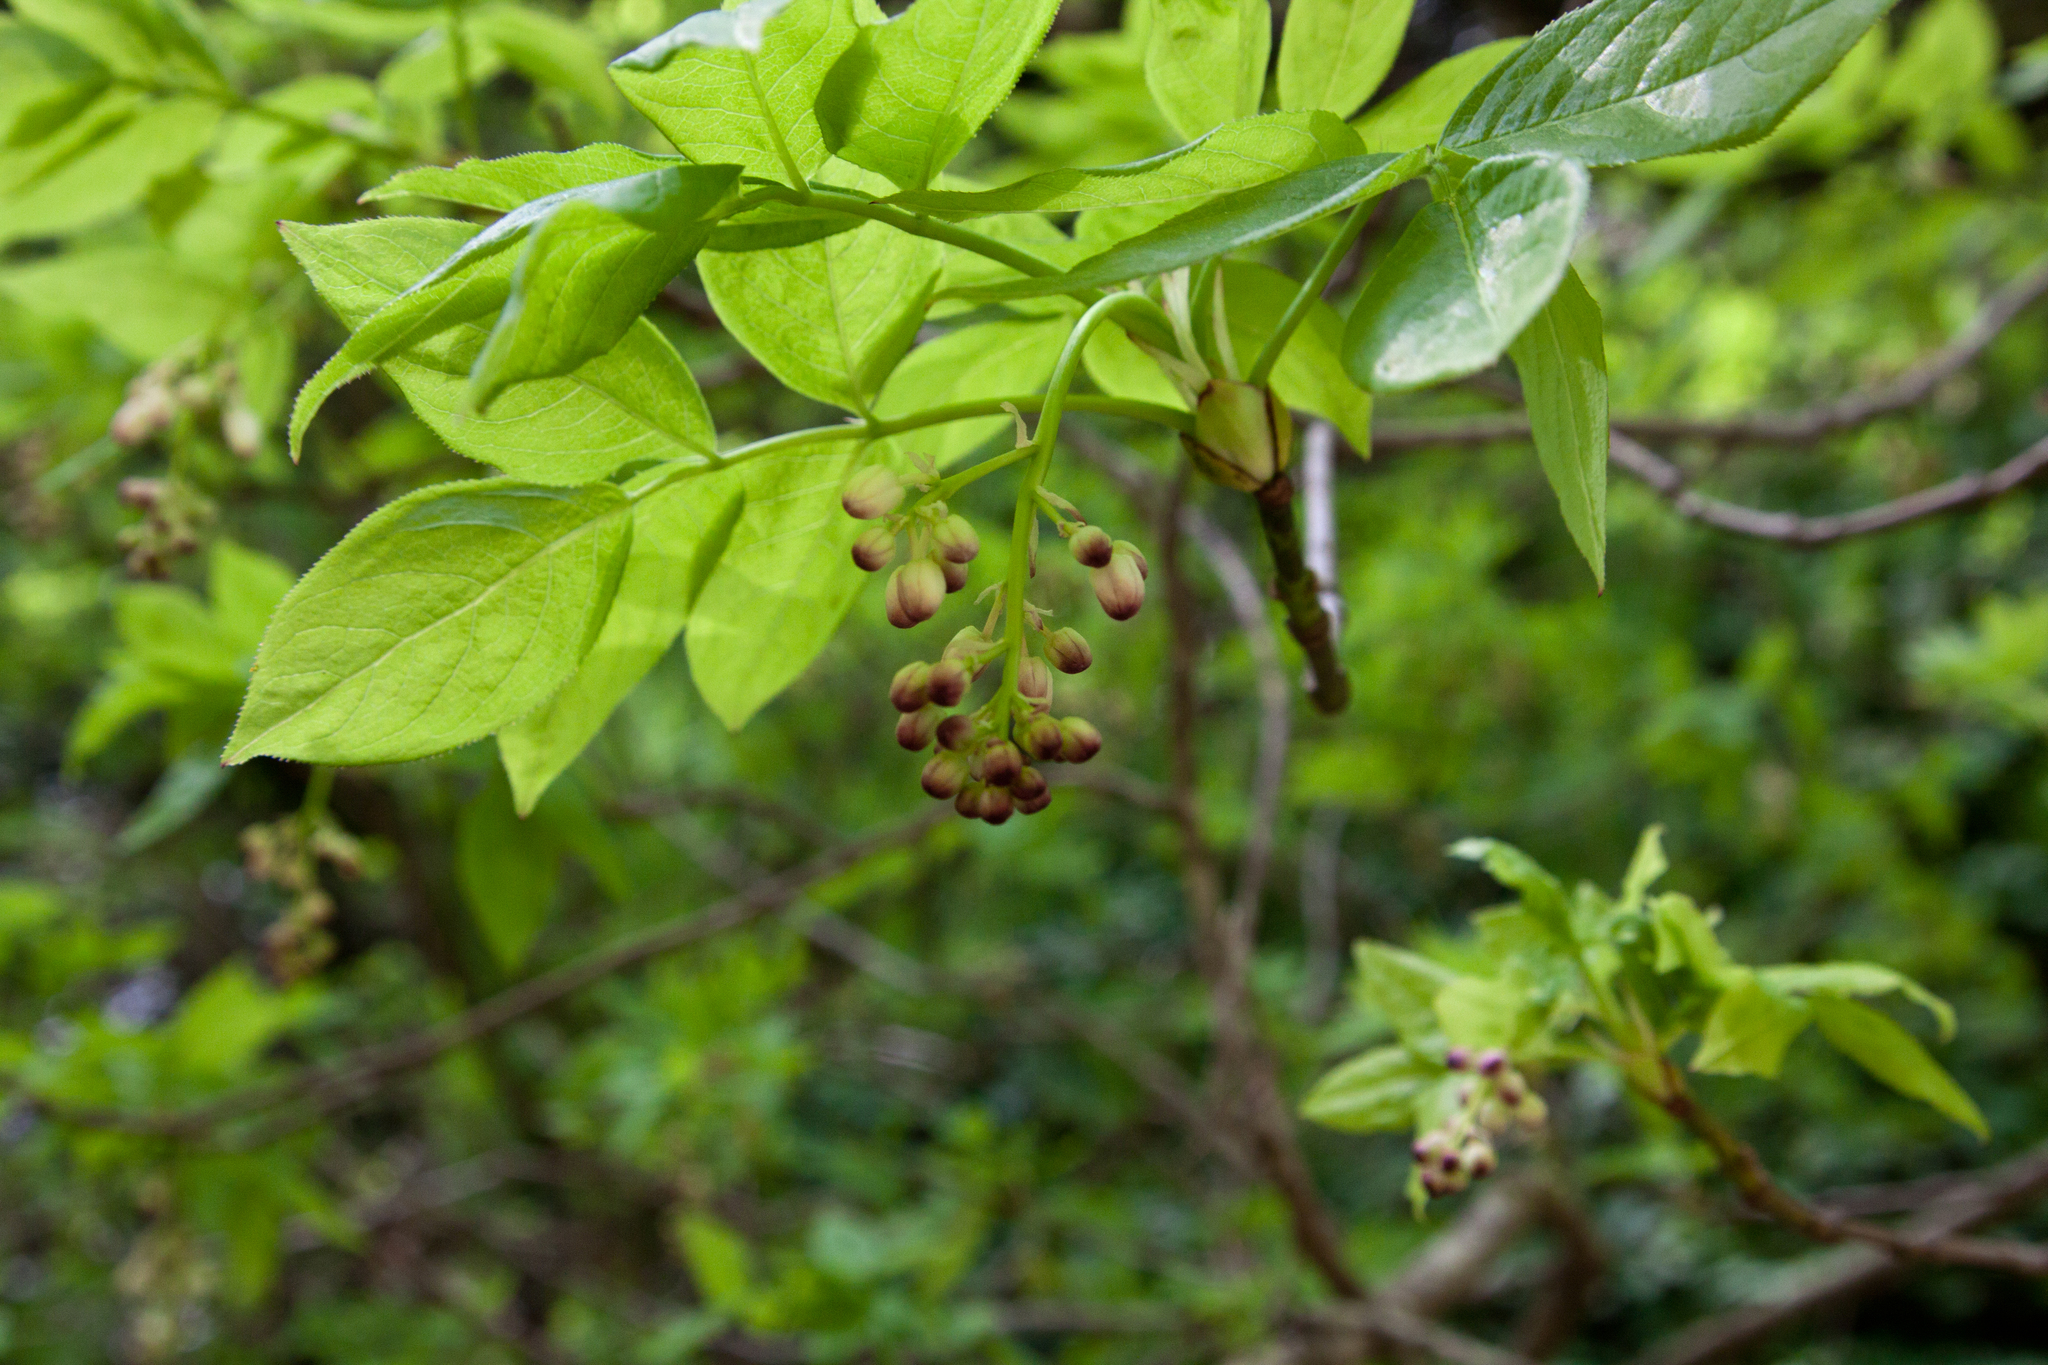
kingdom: Plantae
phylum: Tracheophyta
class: Magnoliopsida
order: Crossosomatales
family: Staphyleaceae
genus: Staphylea
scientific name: Staphylea pinnata
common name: Bladdernut
